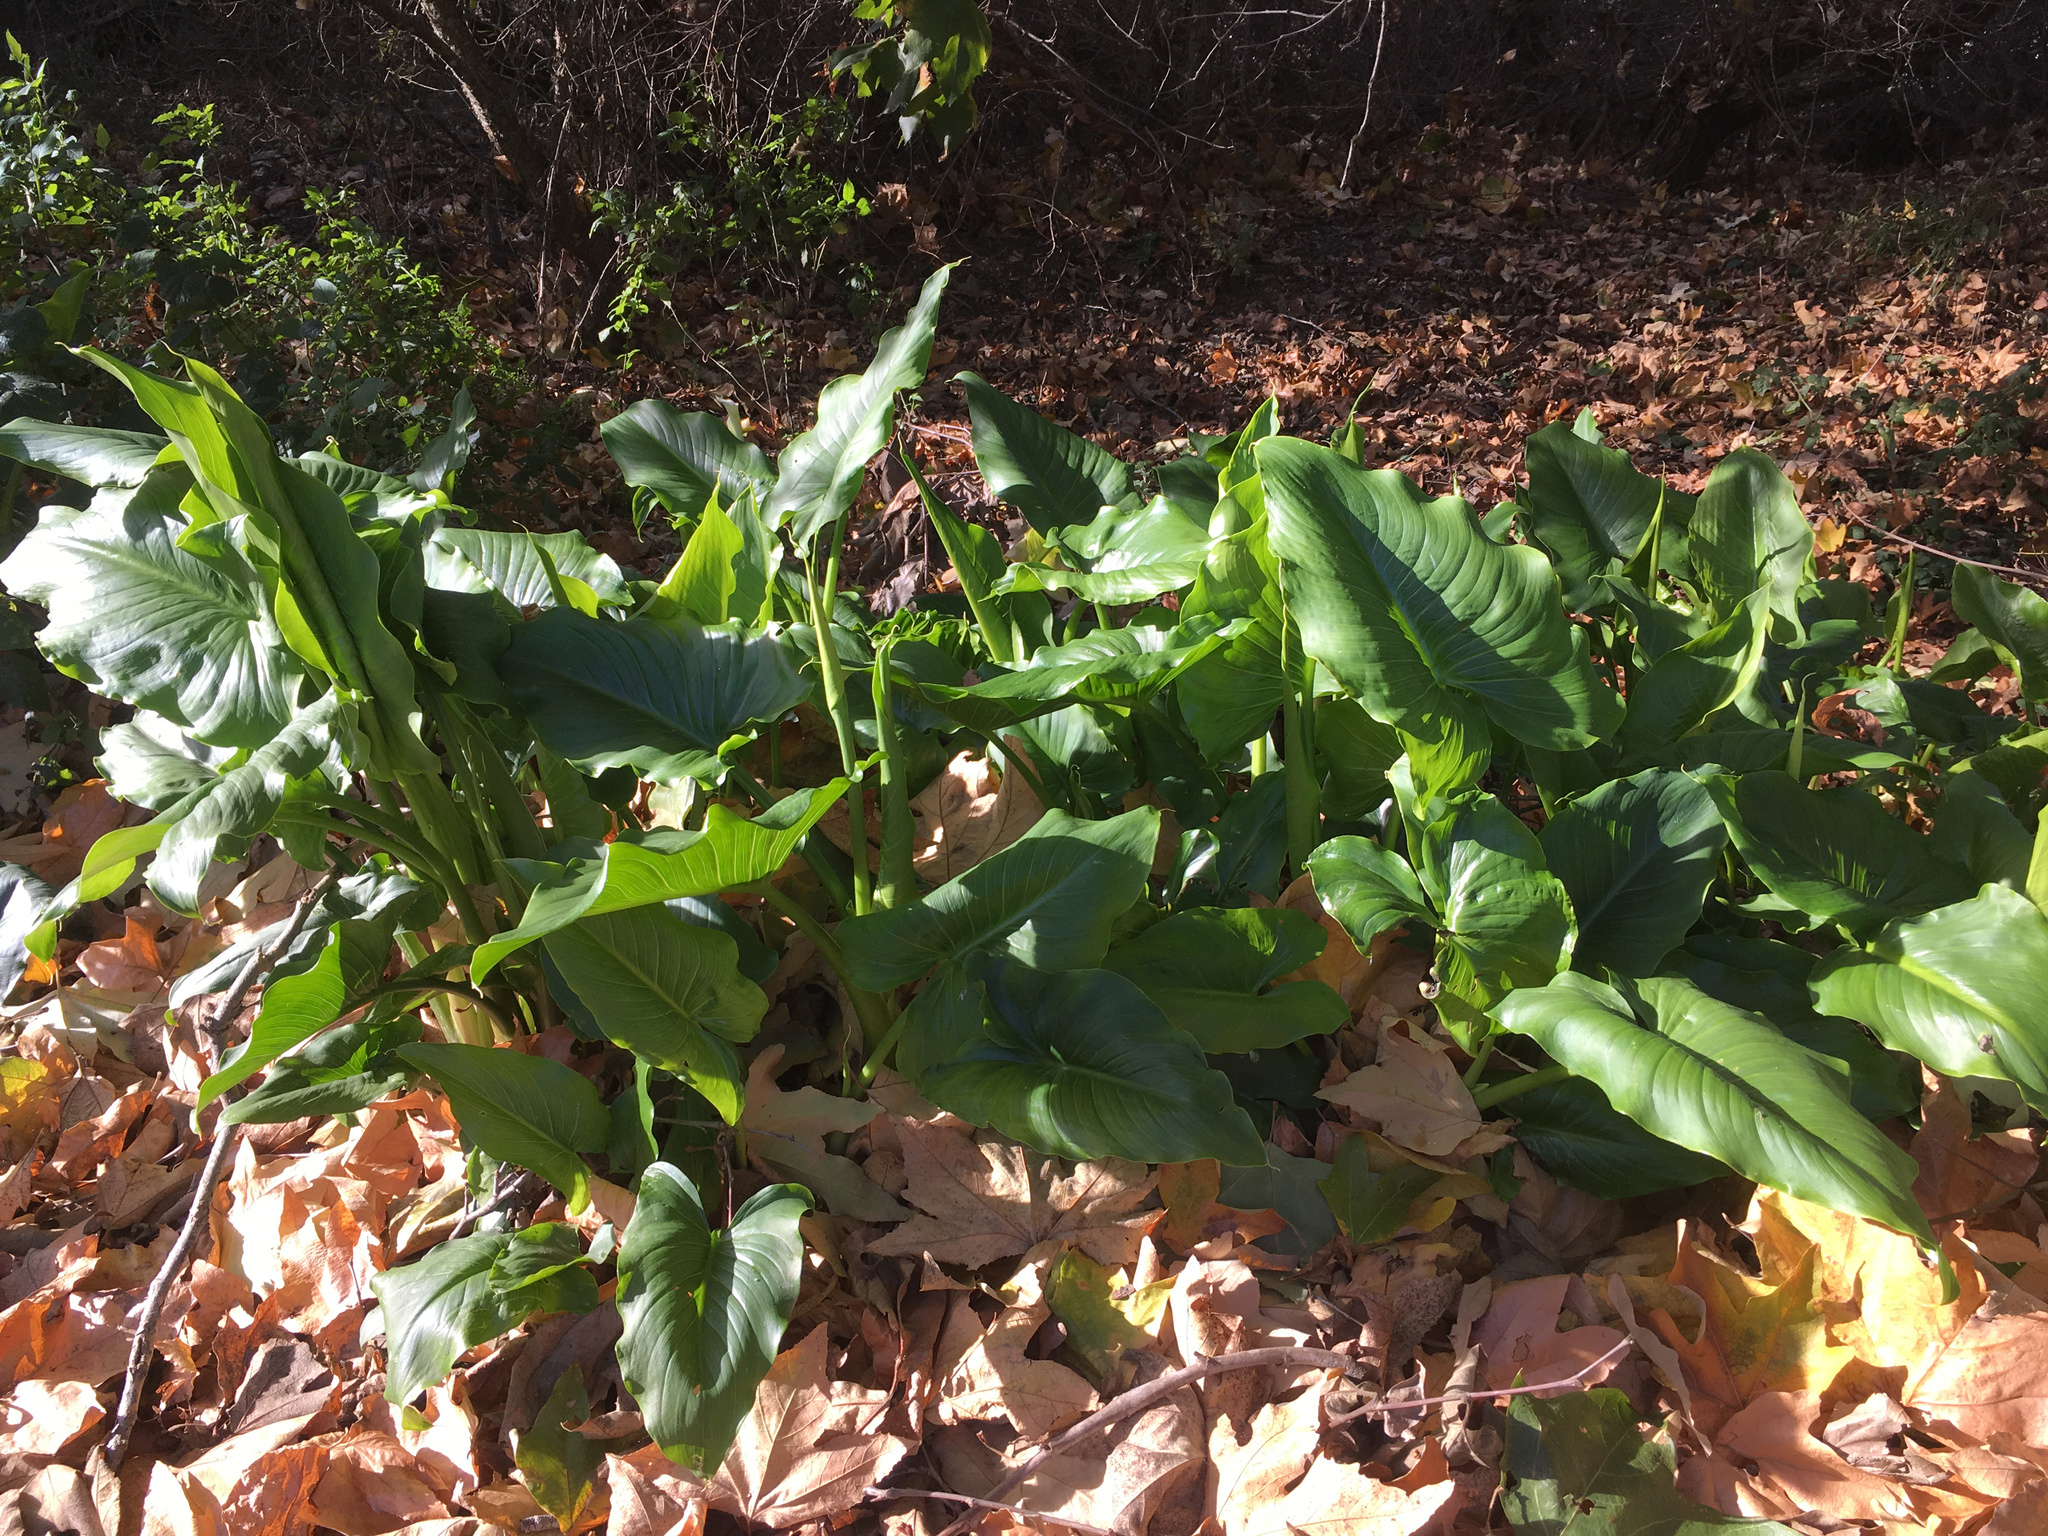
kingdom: Plantae
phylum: Tracheophyta
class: Liliopsida
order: Alismatales
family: Araceae
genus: Zantedeschia
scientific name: Zantedeschia aethiopica
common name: Altar-lily
